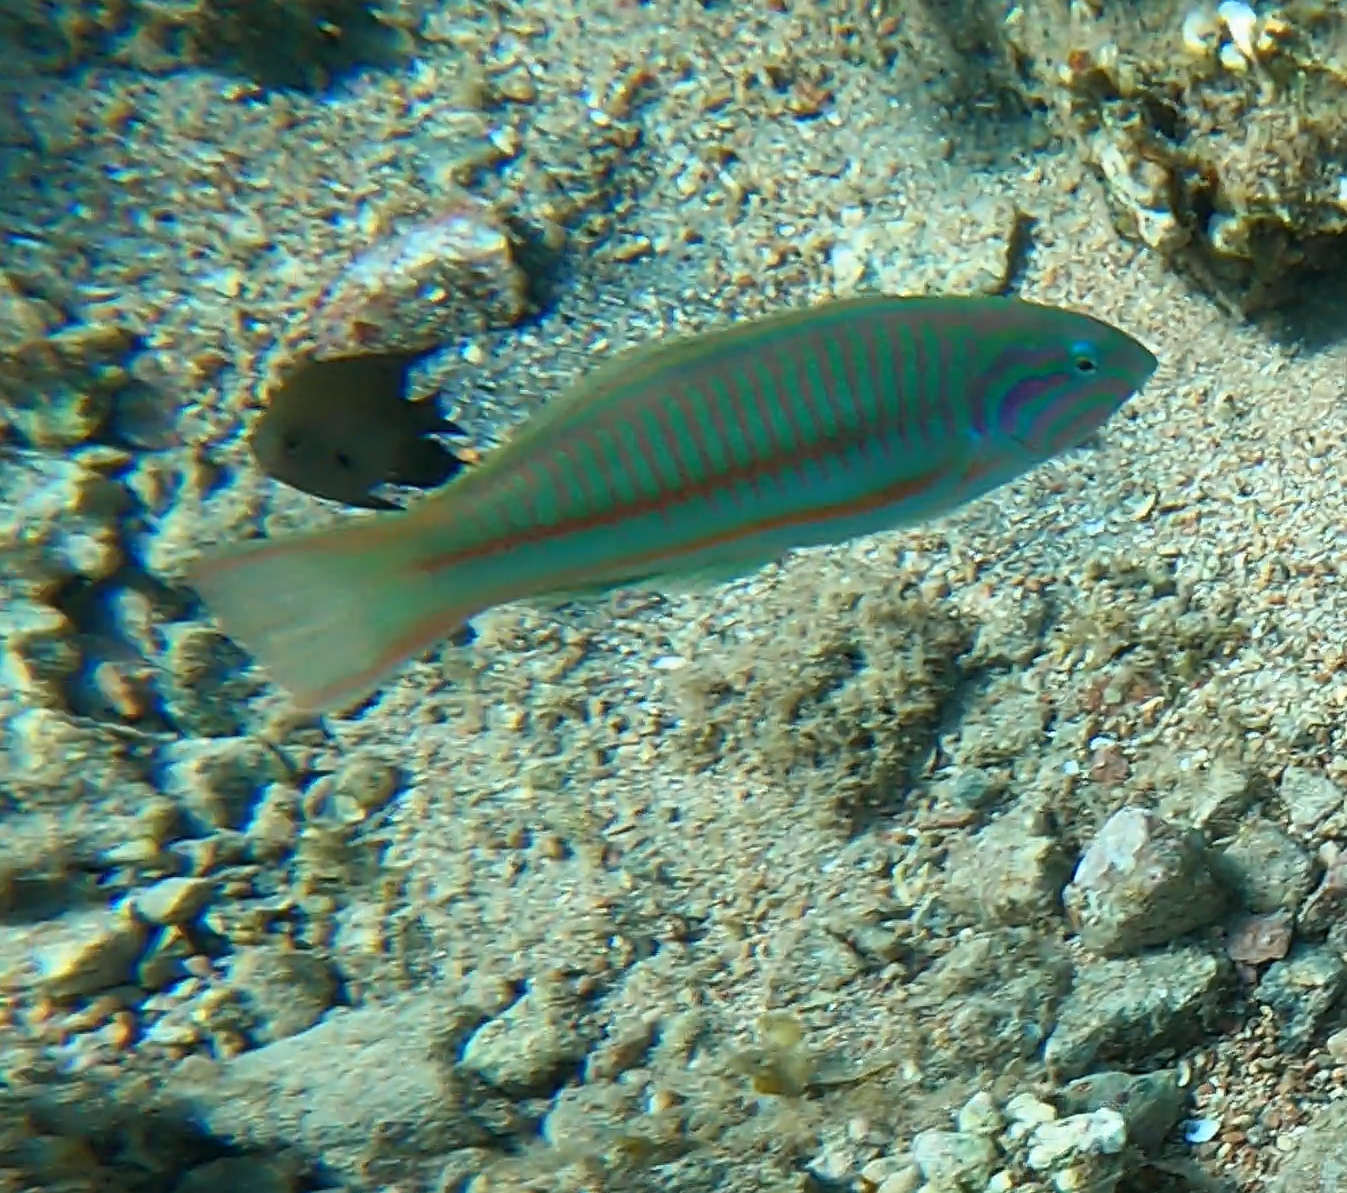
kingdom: Animalia
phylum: Chordata
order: Perciformes
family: Labridae
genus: Thalassoma
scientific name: Thalassoma rueppellii
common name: Klunzinger's wrasse
